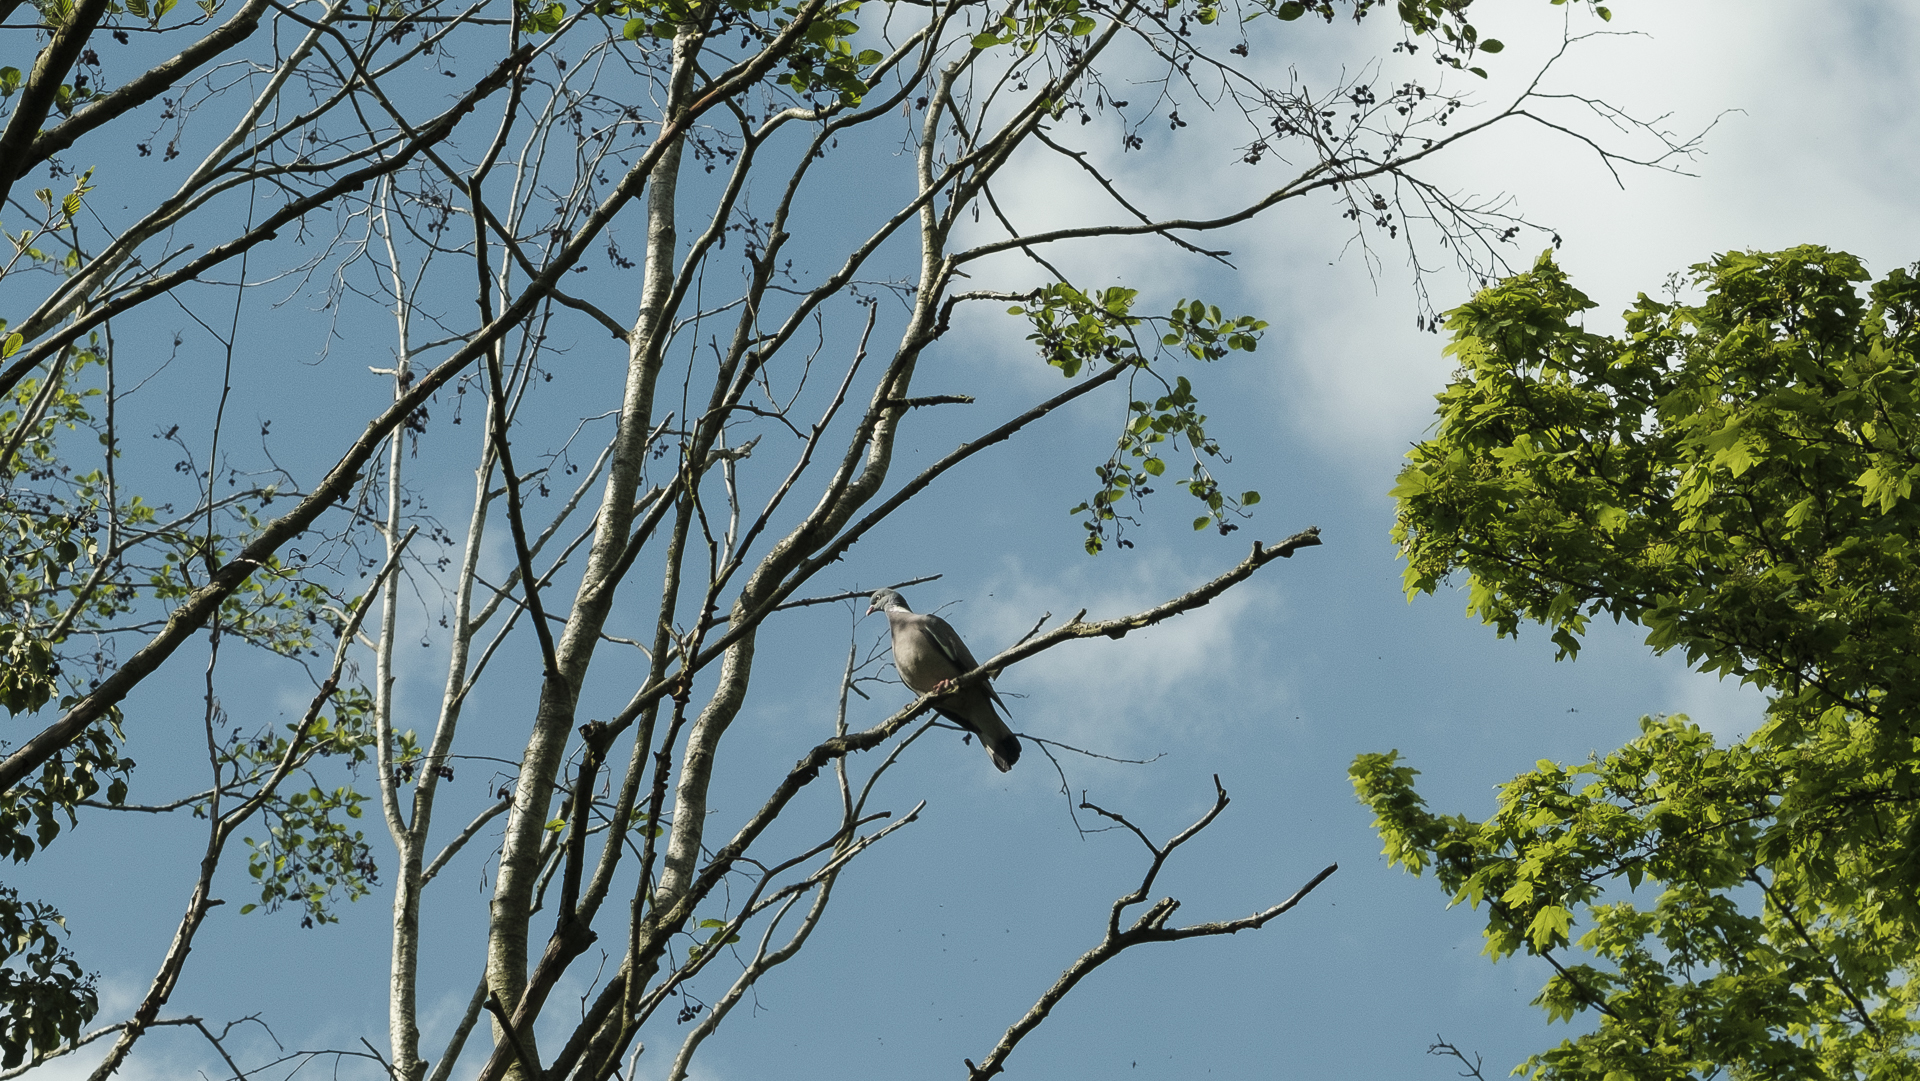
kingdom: Animalia
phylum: Chordata
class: Aves
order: Columbiformes
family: Columbidae
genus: Columba
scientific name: Columba palumbus
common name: Common wood pigeon
